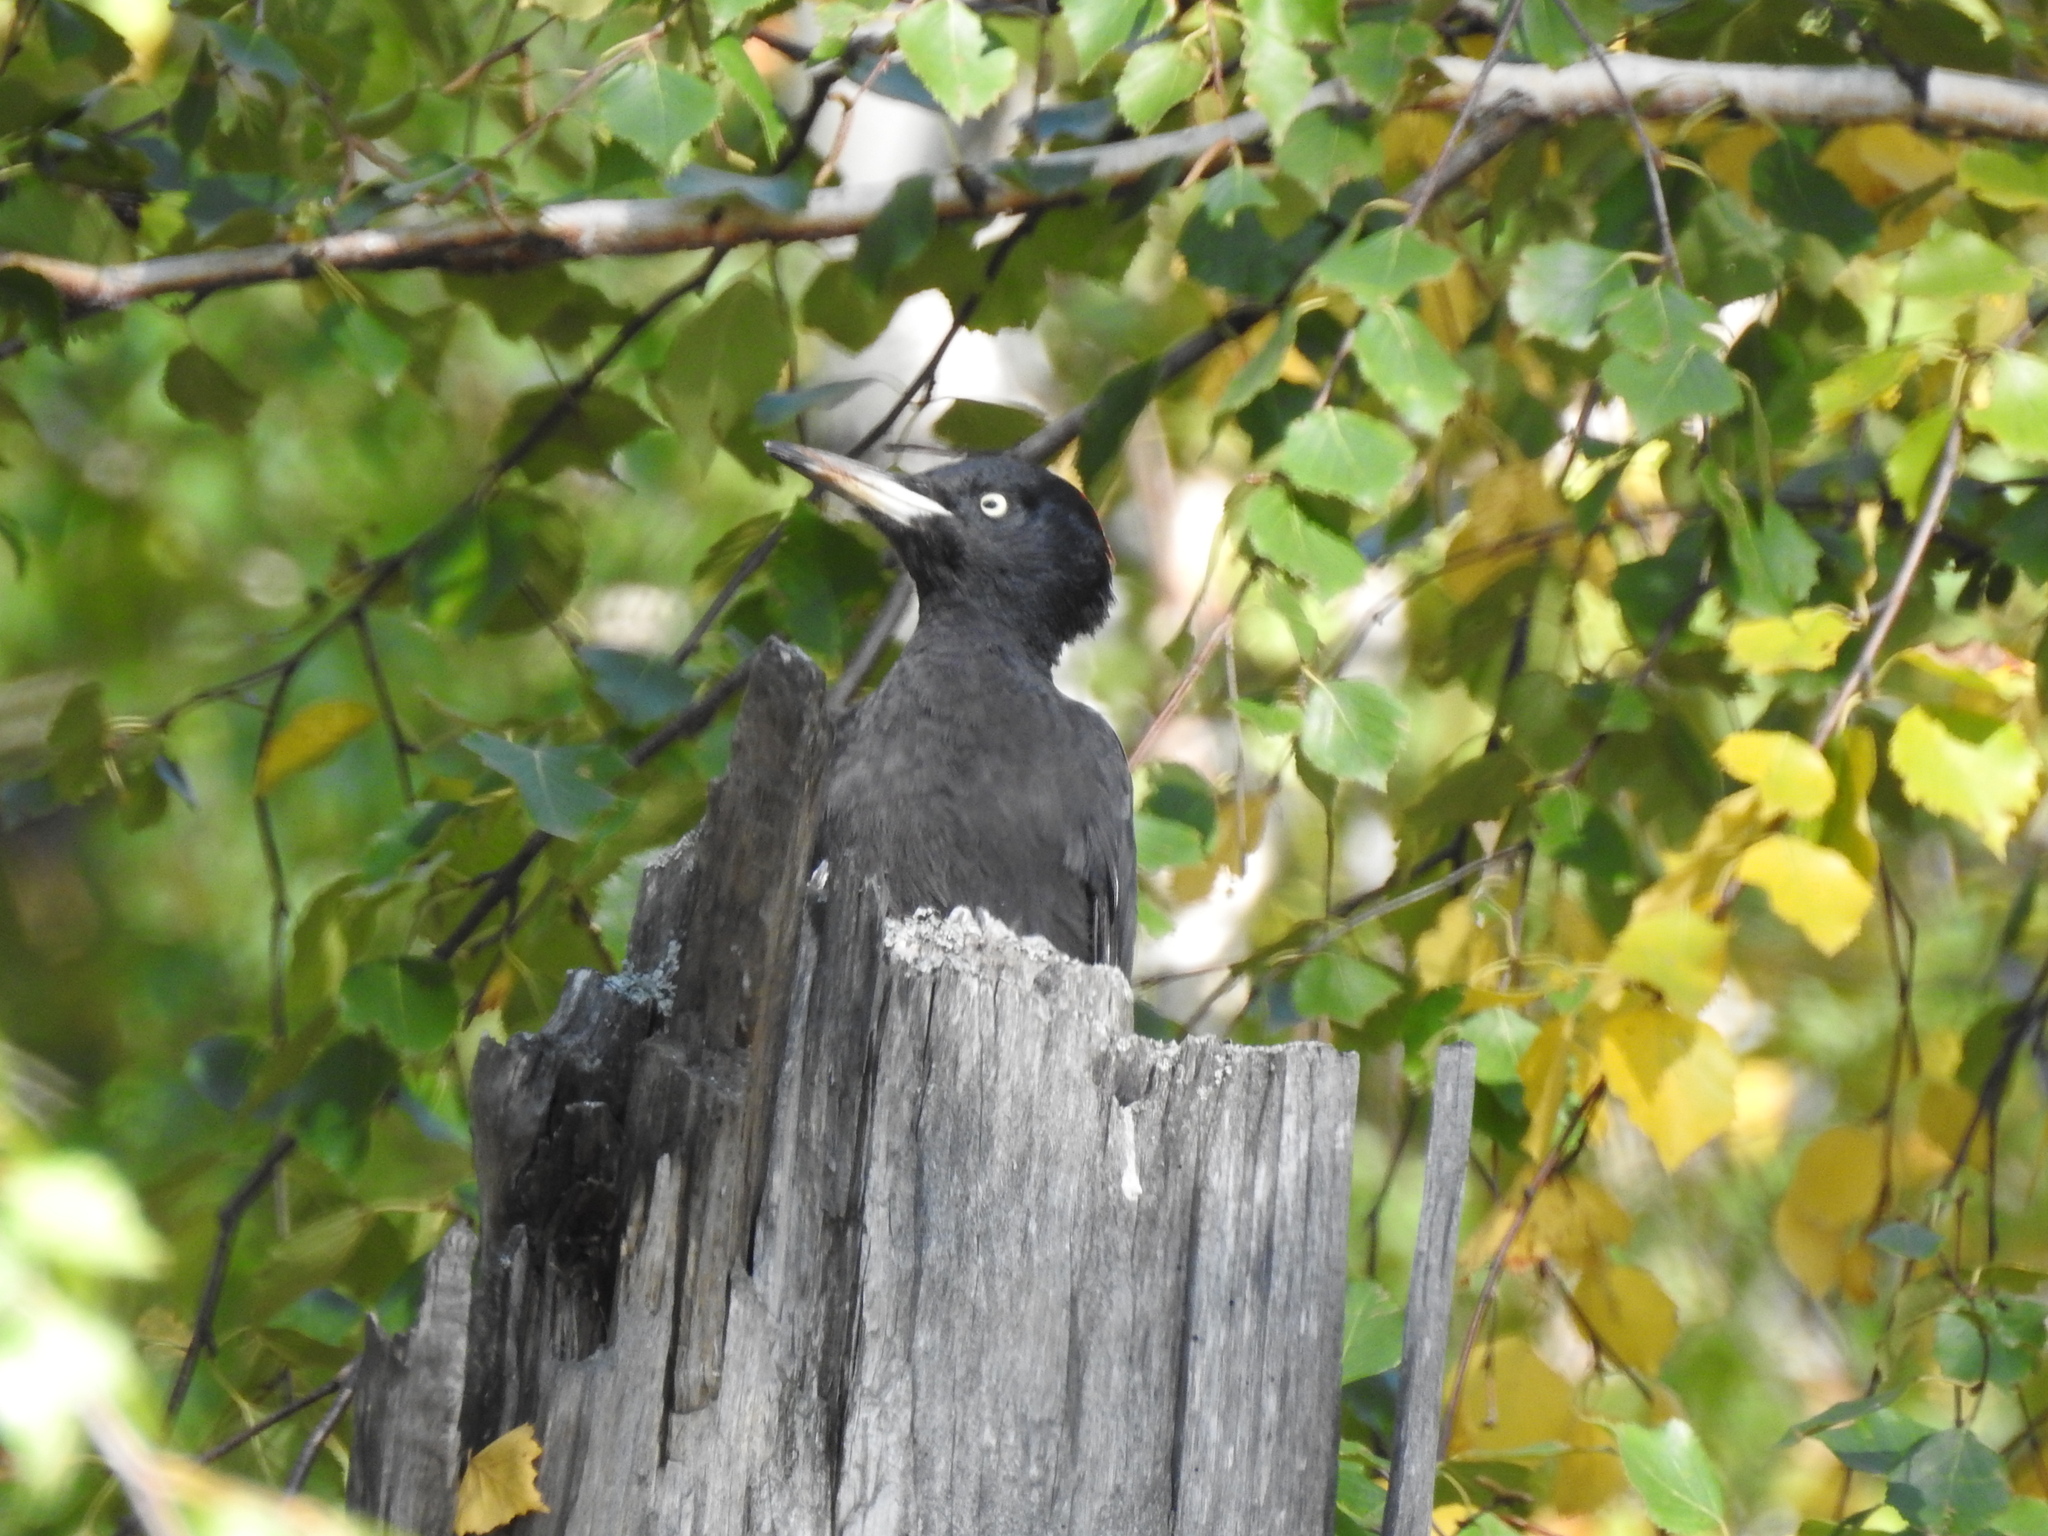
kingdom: Animalia
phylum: Chordata
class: Aves
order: Piciformes
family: Picidae
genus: Dryocopus
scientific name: Dryocopus martius
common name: Black woodpecker
